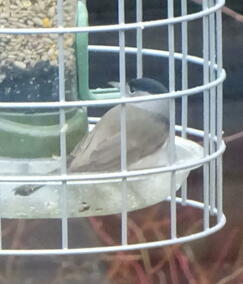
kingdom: Animalia
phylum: Chordata
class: Aves
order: Passeriformes
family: Sylviidae
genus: Sylvia
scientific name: Sylvia atricapilla
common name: Eurasian blackcap
